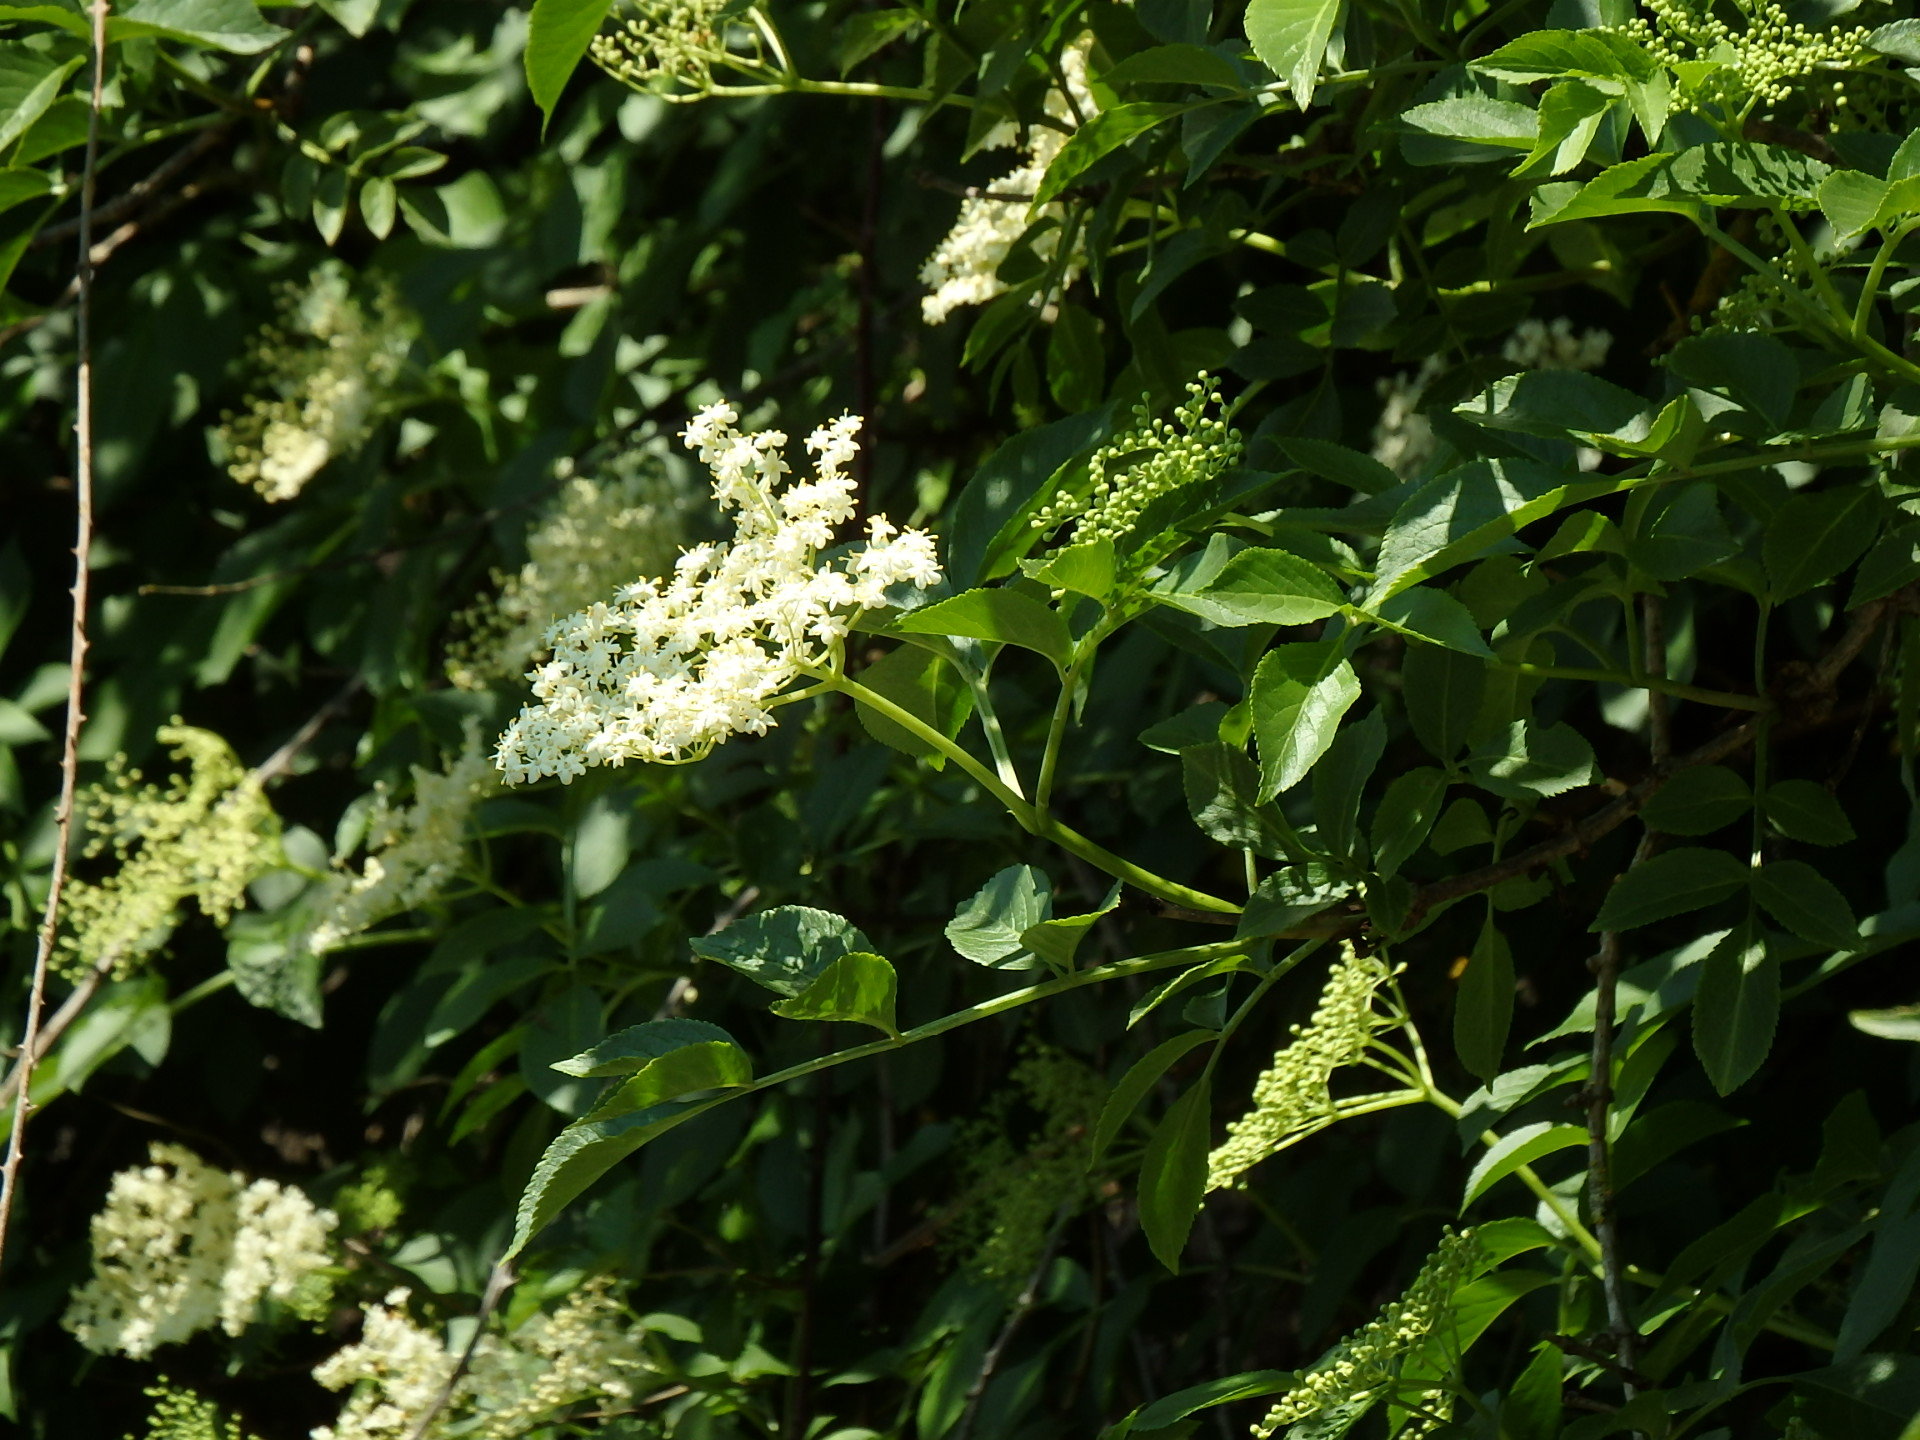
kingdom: Plantae
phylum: Tracheophyta
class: Magnoliopsida
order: Dipsacales
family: Viburnaceae
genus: Sambucus
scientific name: Sambucus nigra
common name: Elder
